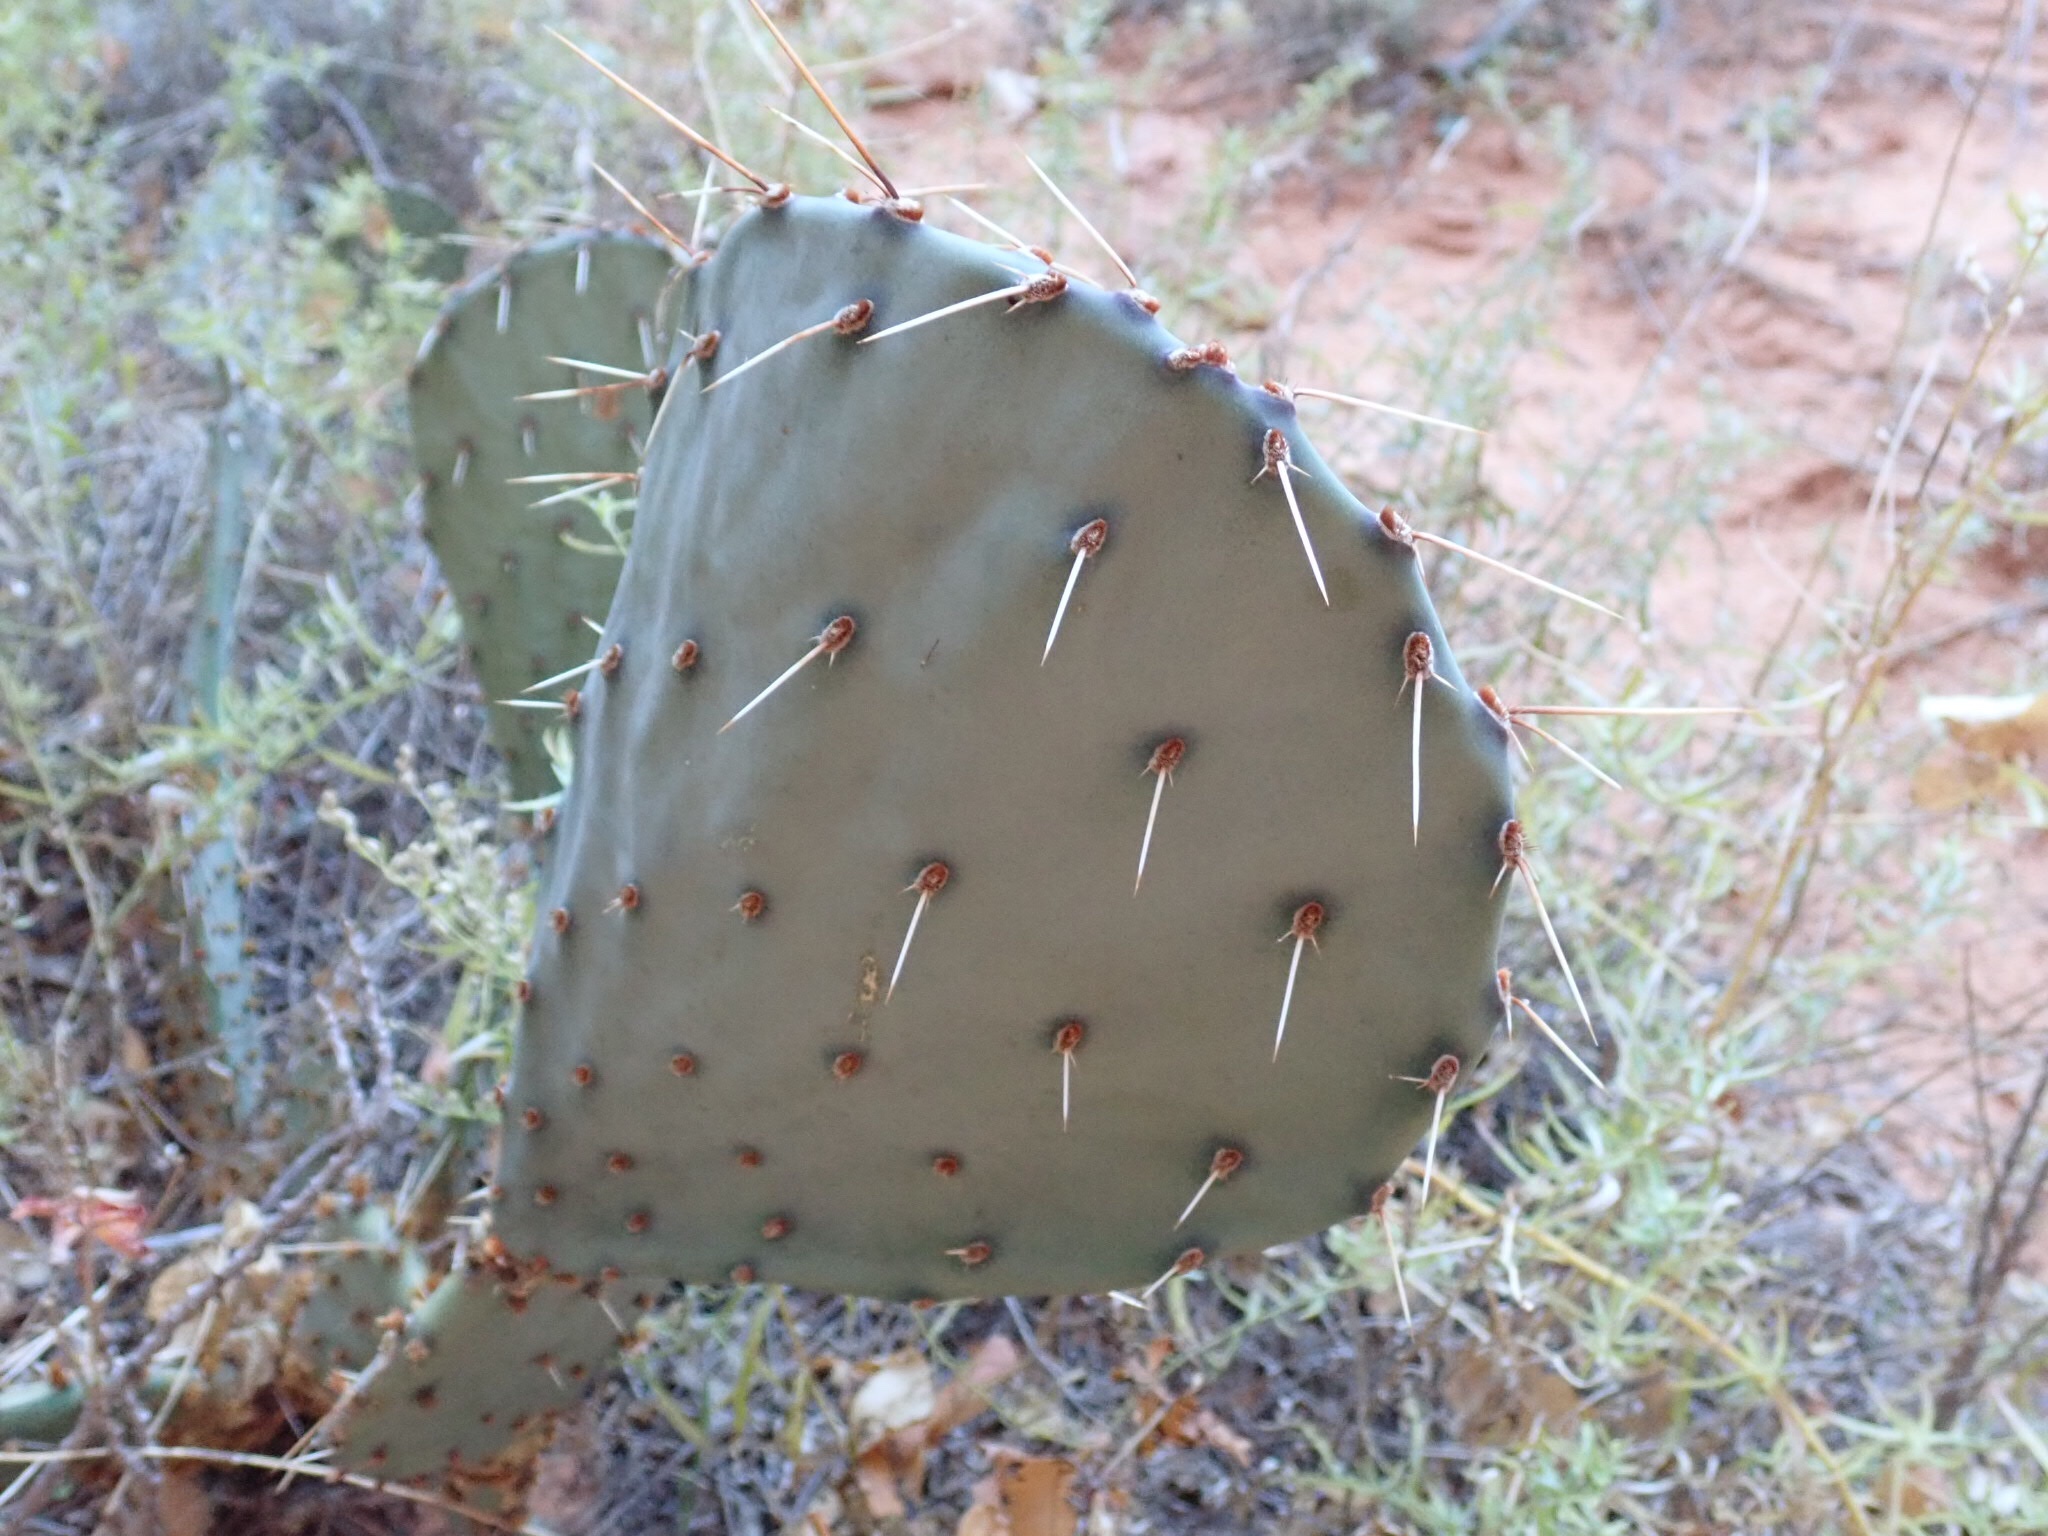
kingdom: Plantae
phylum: Tracheophyta
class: Magnoliopsida
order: Caryophyllales
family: Cactaceae
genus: Opuntia
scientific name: Opuntia phaeacantha
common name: New mexico prickly-pear
